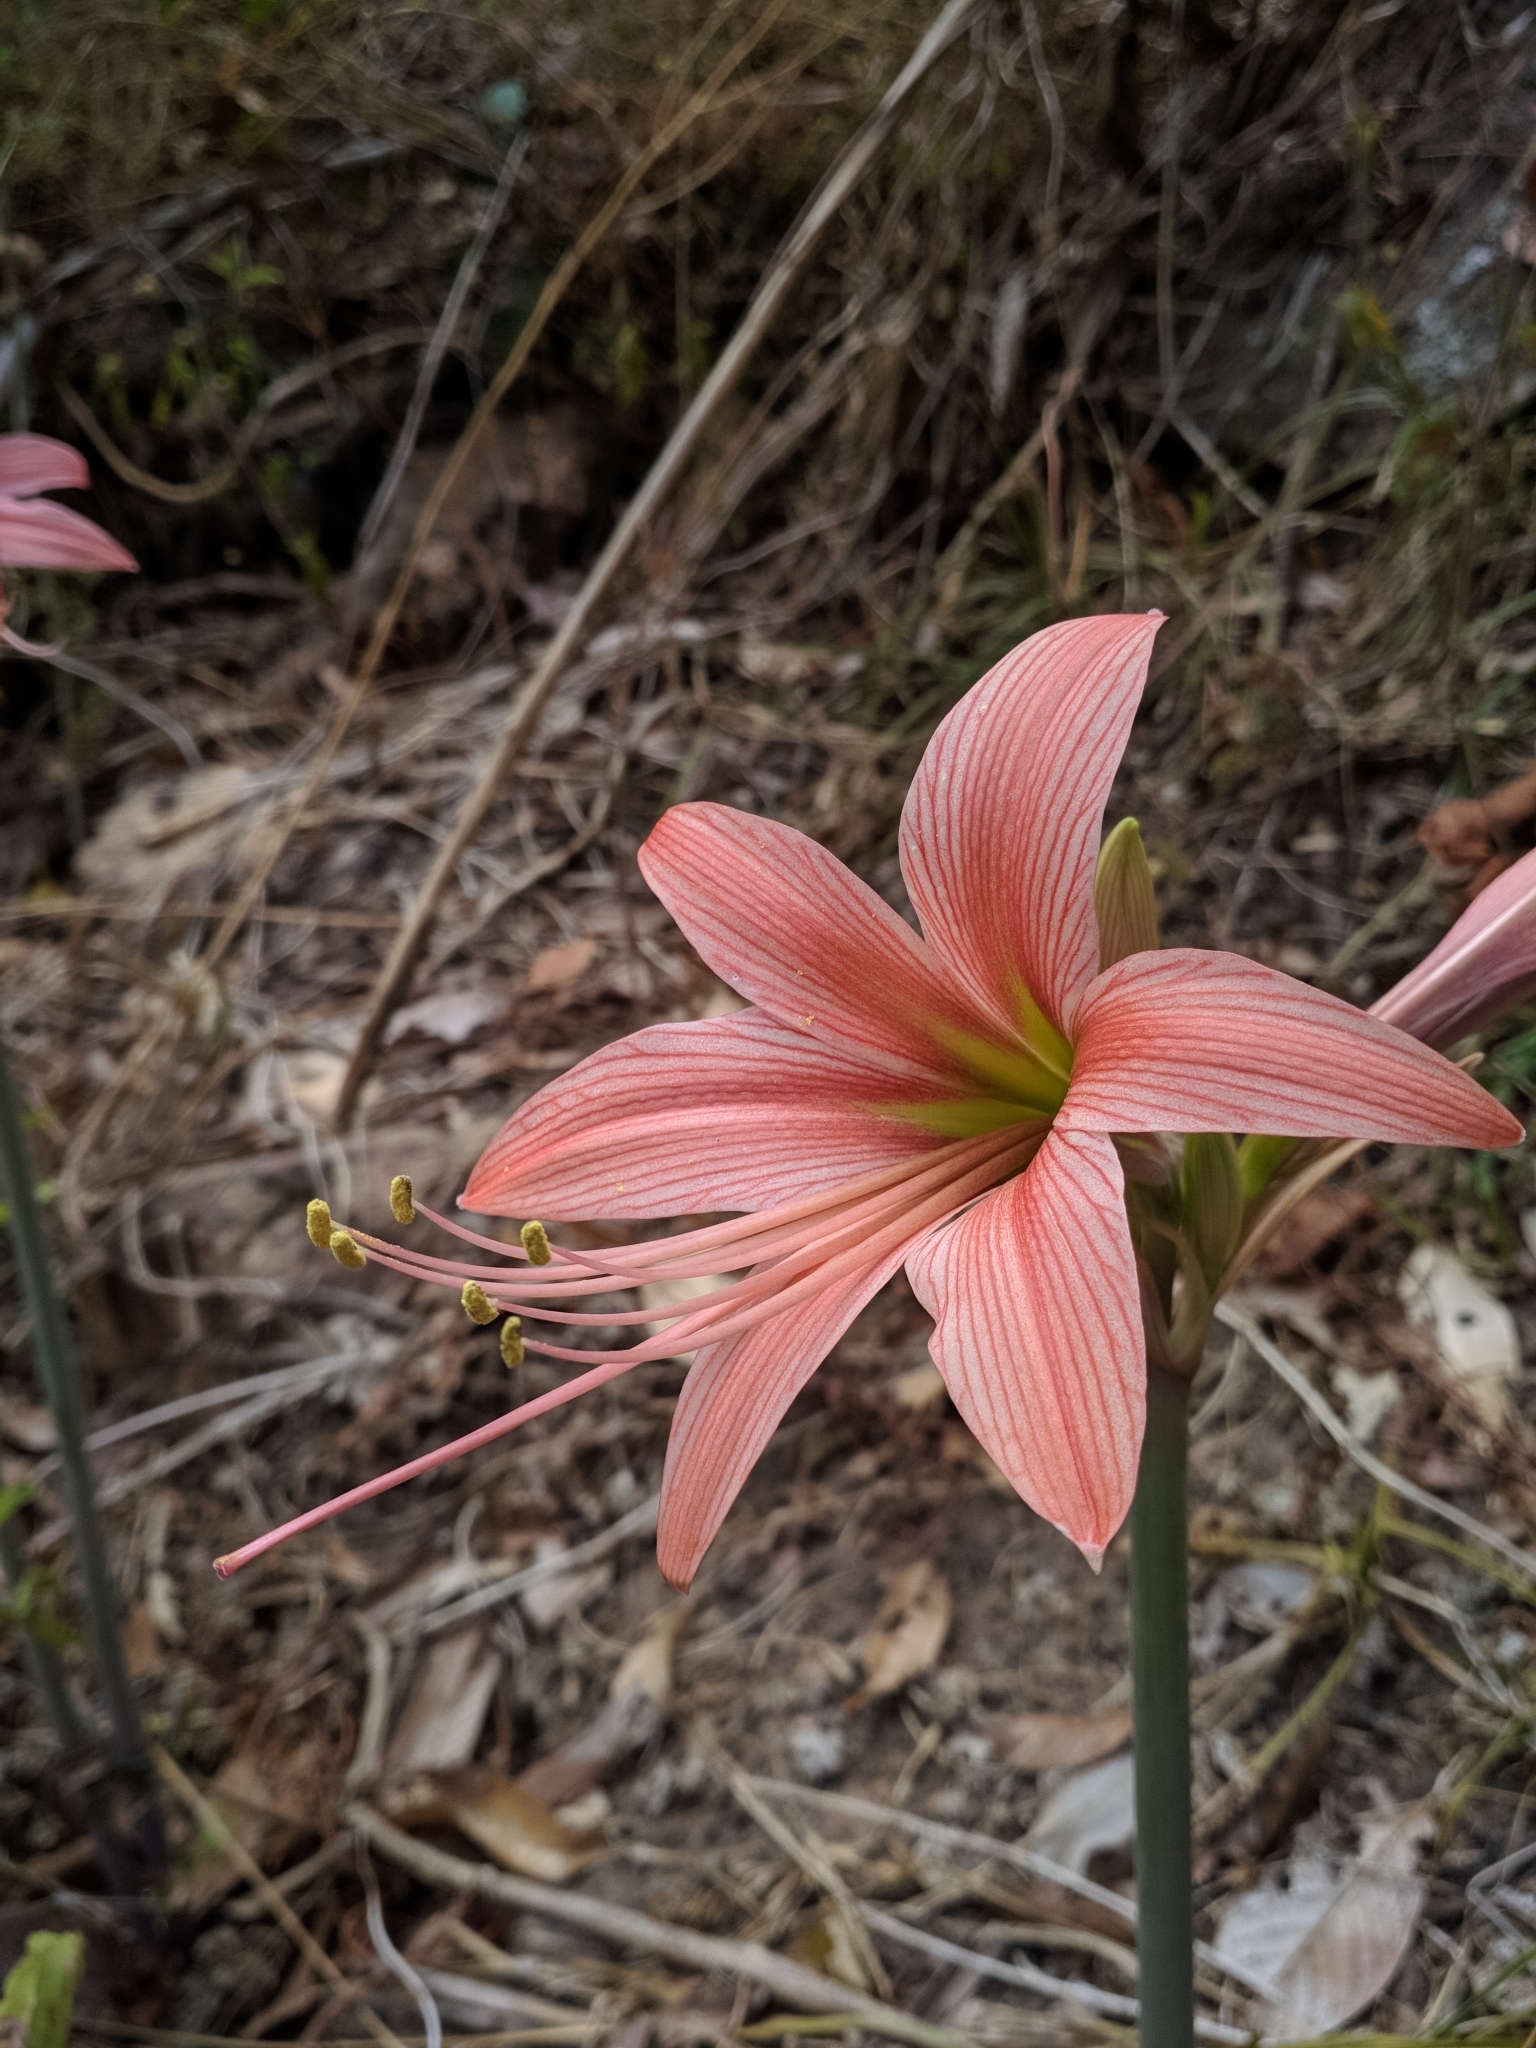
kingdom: Plantae
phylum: Tracheophyta
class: Liliopsida
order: Asparagales
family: Amaryllidaceae
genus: Hippeastrum
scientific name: Hippeastrum stylosum
